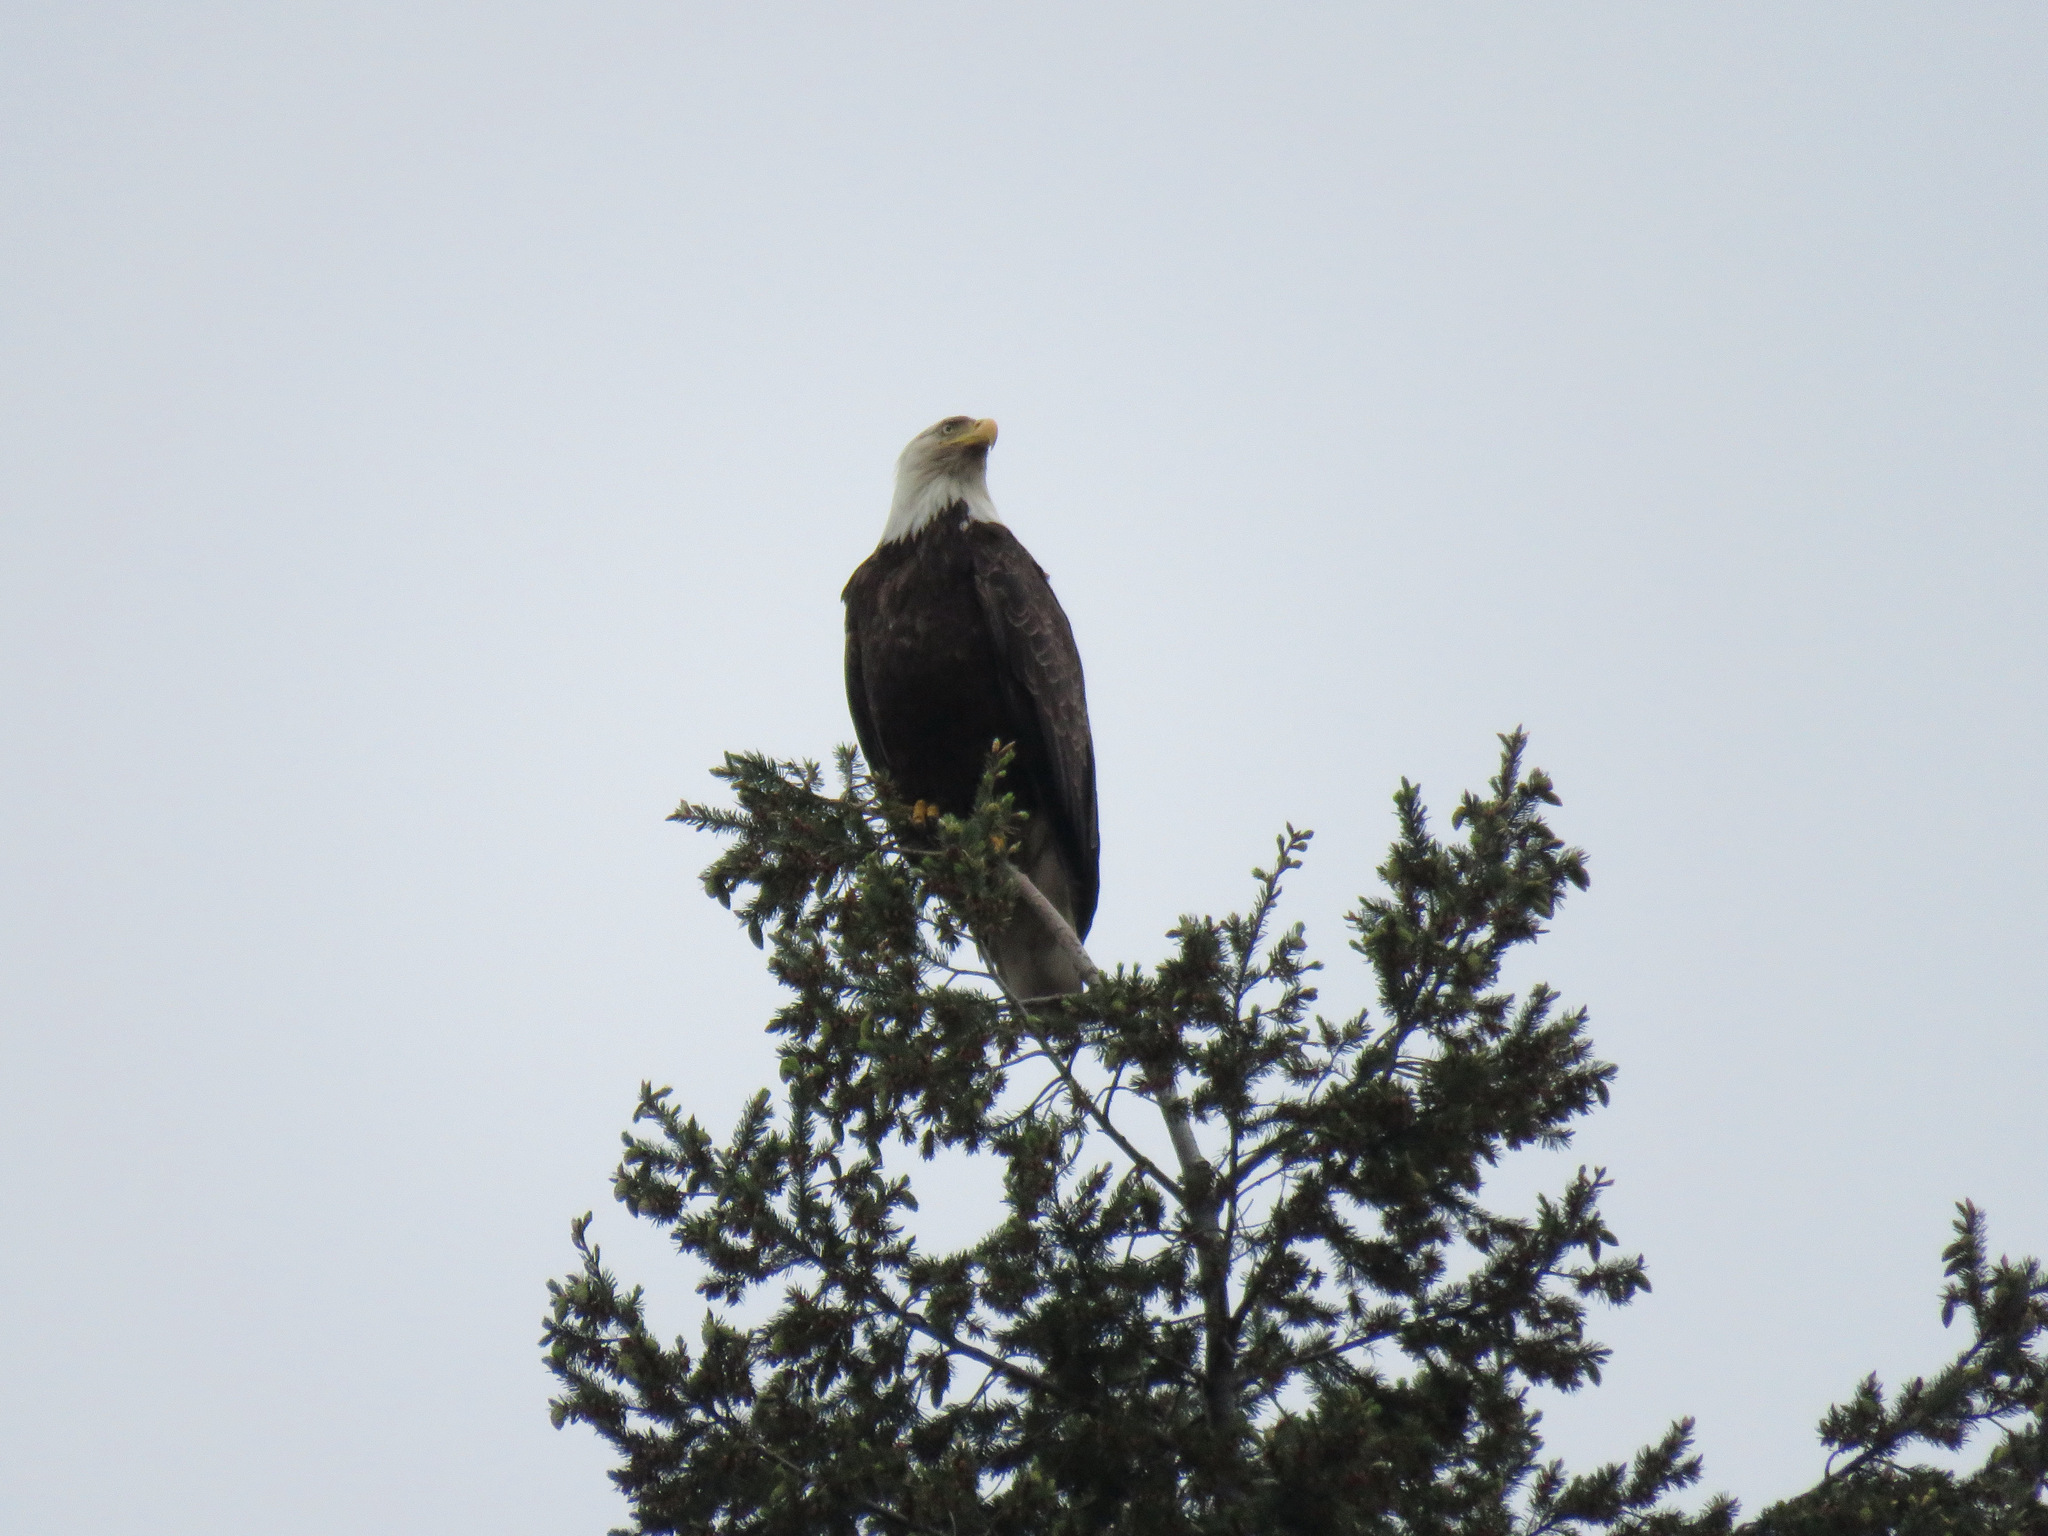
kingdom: Animalia
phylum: Chordata
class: Aves
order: Accipitriformes
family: Accipitridae
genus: Haliaeetus
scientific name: Haliaeetus leucocephalus
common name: Bald eagle
